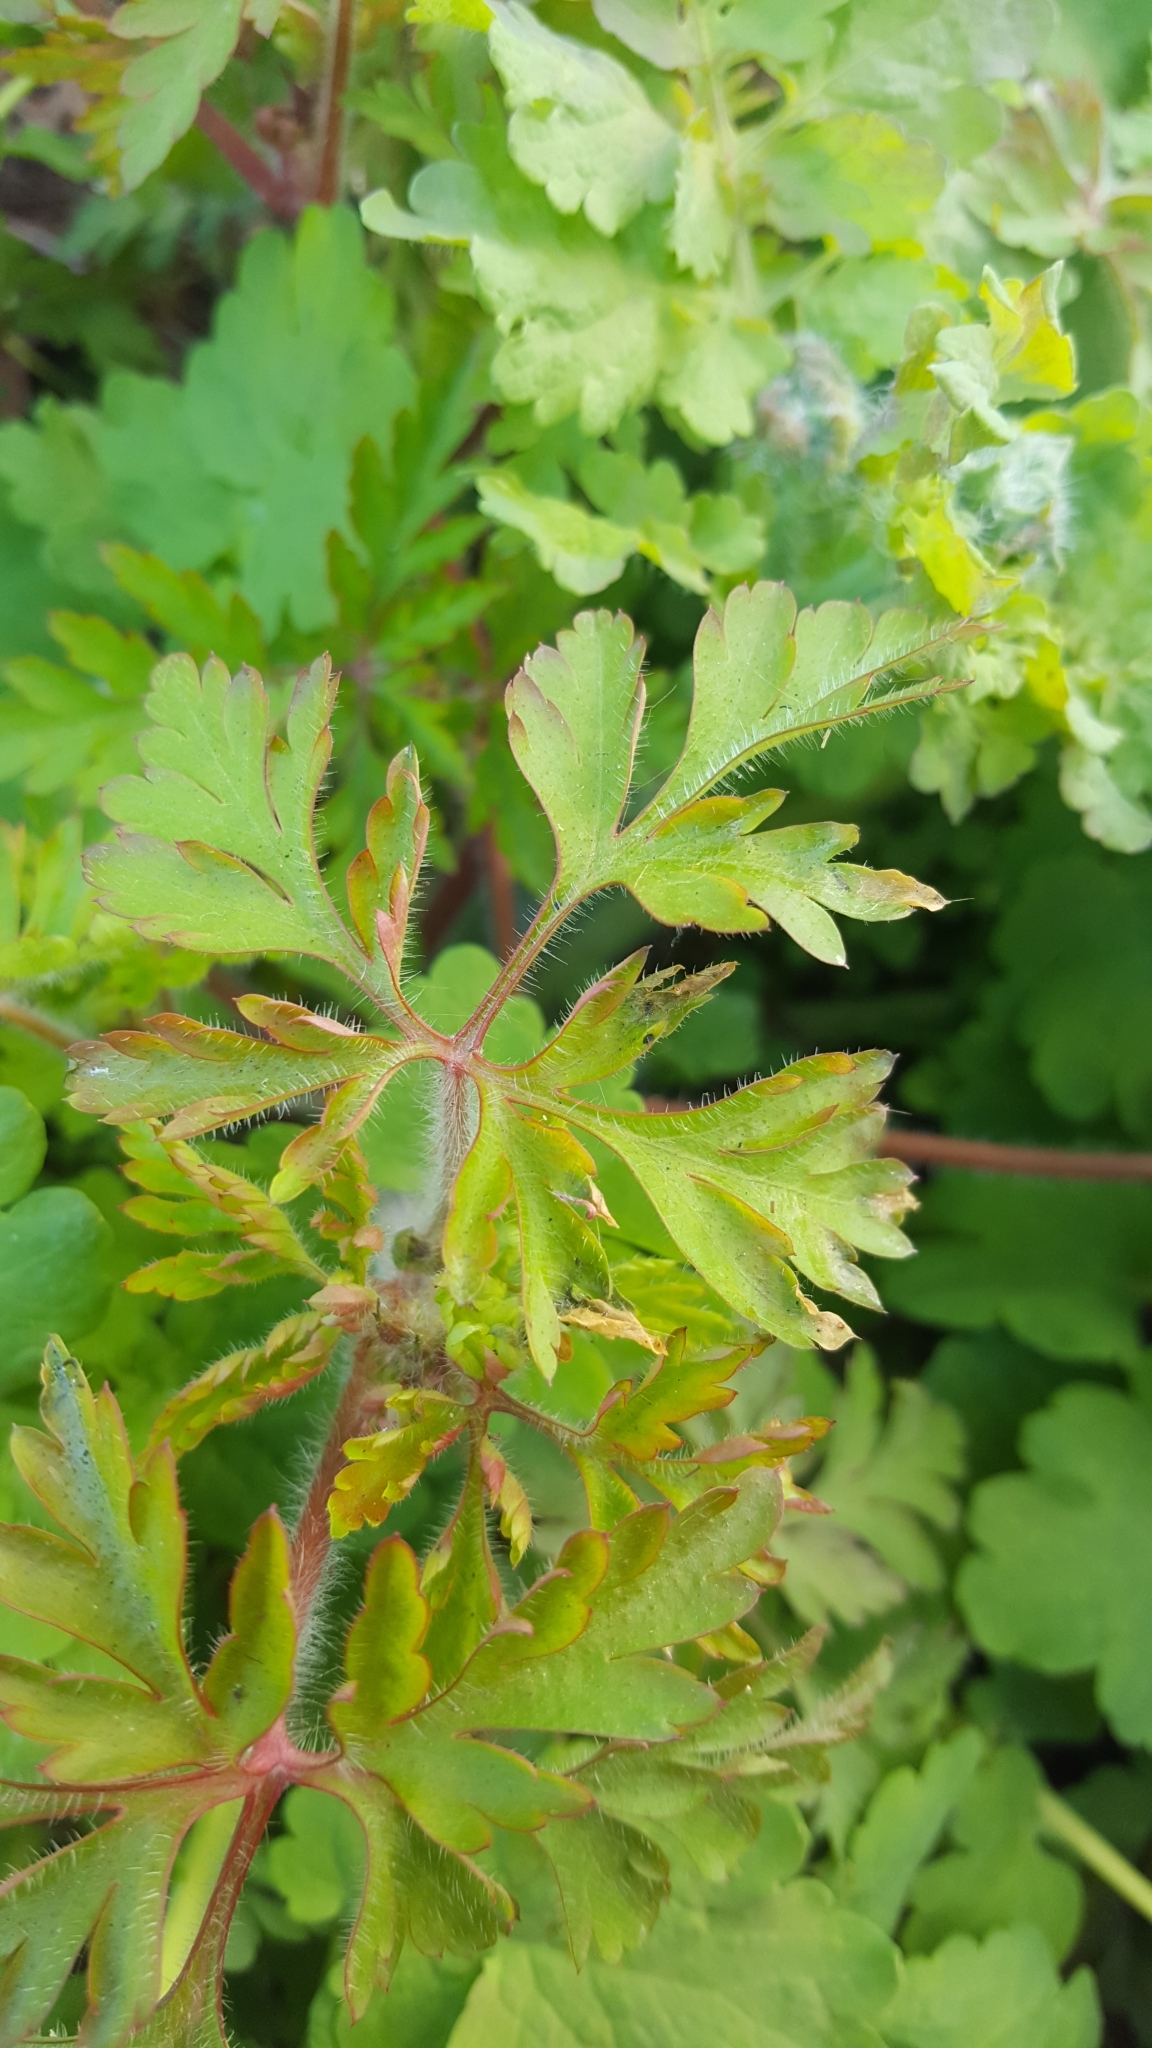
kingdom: Plantae
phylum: Tracheophyta
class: Magnoliopsida
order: Geraniales
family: Geraniaceae
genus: Geranium
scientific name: Geranium robertianum
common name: Herb-robert
